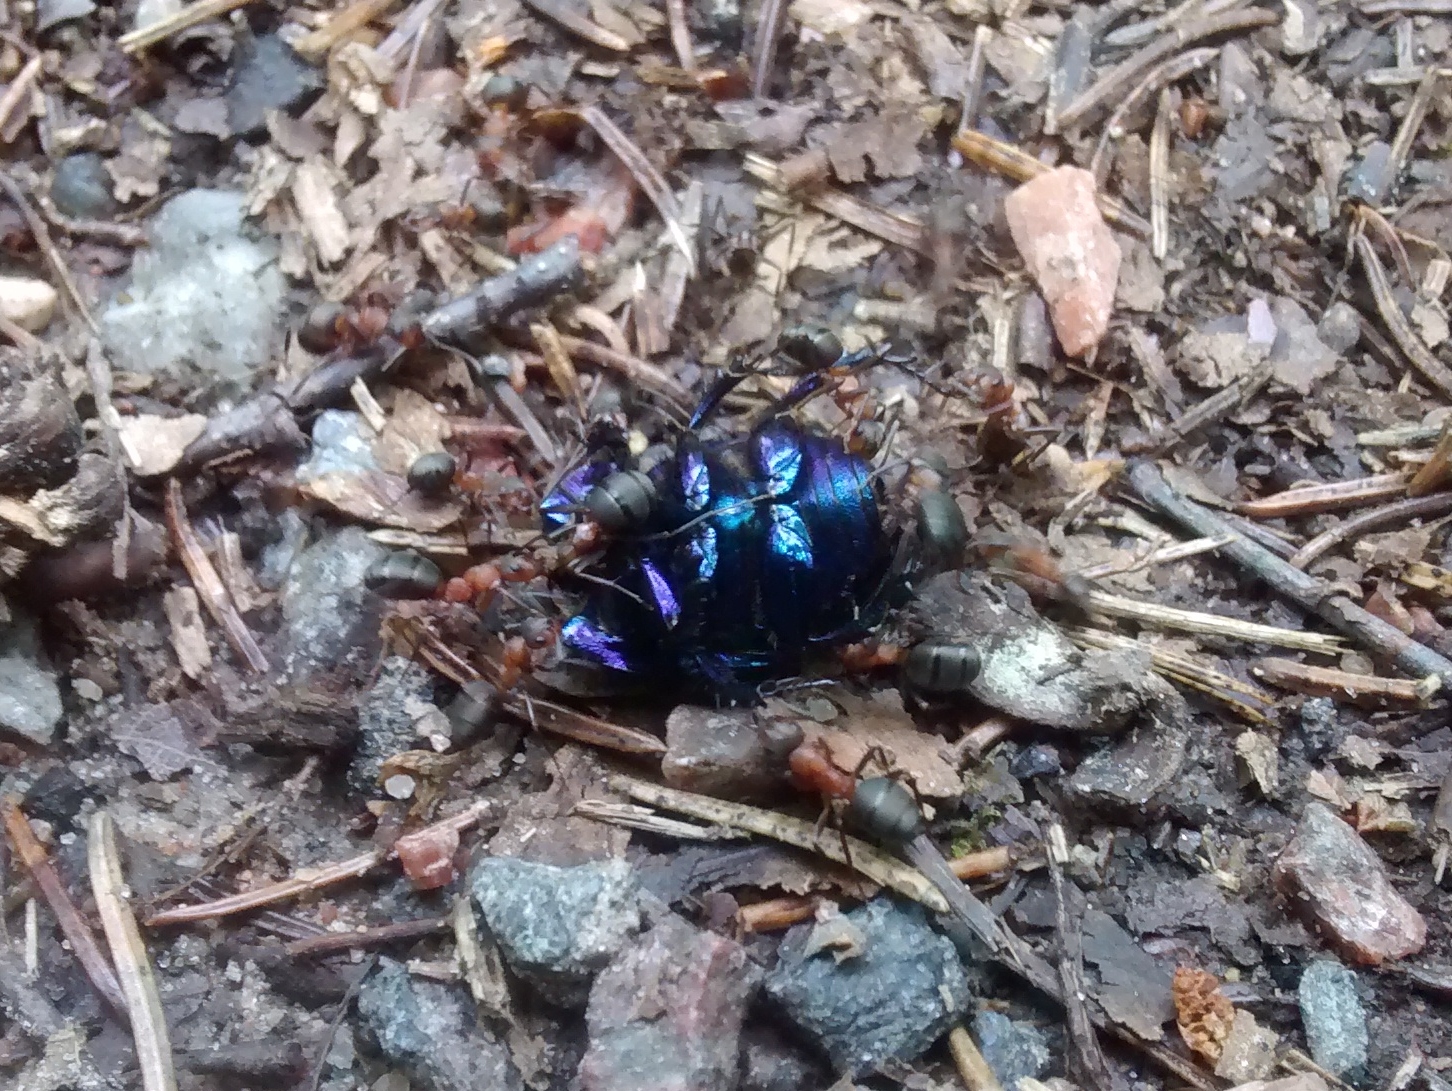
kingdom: Animalia
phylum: Arthropoda
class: Insecta
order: Coleoptera
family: Geotrupidae
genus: Anoplotrupes
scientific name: Anoplotrupes stercorosus
